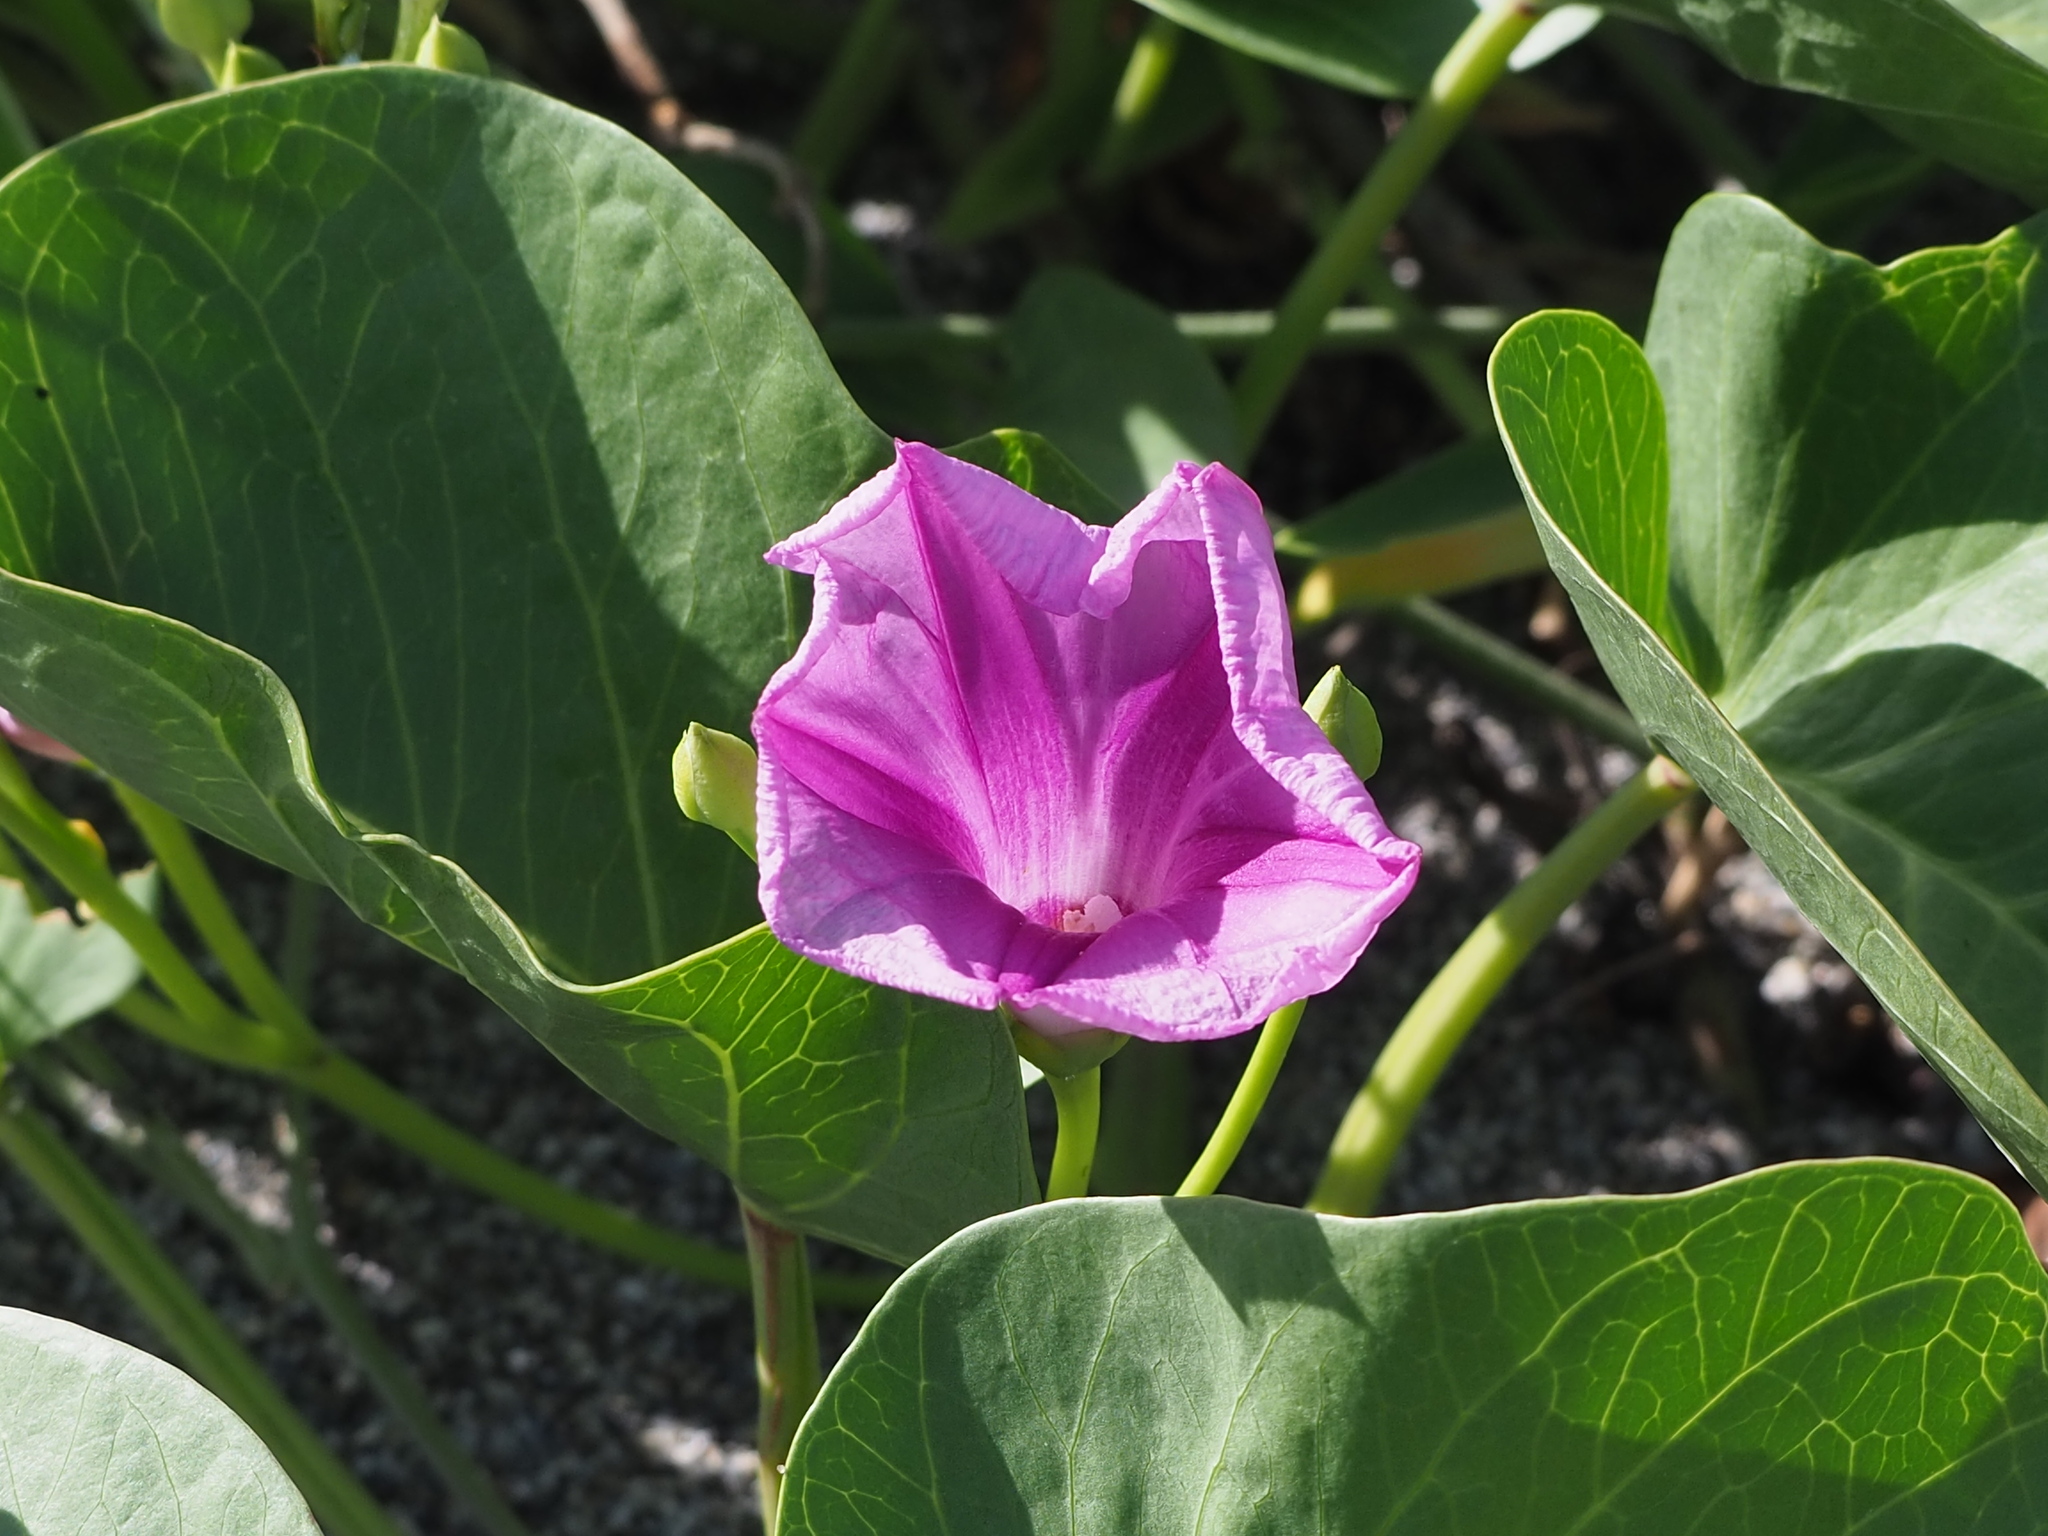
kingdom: Plantae
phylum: Tracheophyta
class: Magnoliopsida
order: Solanales
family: Convolvulaceae
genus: Ipomoea
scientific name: Ipomoea pes-caprae
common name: Beach morning glory
